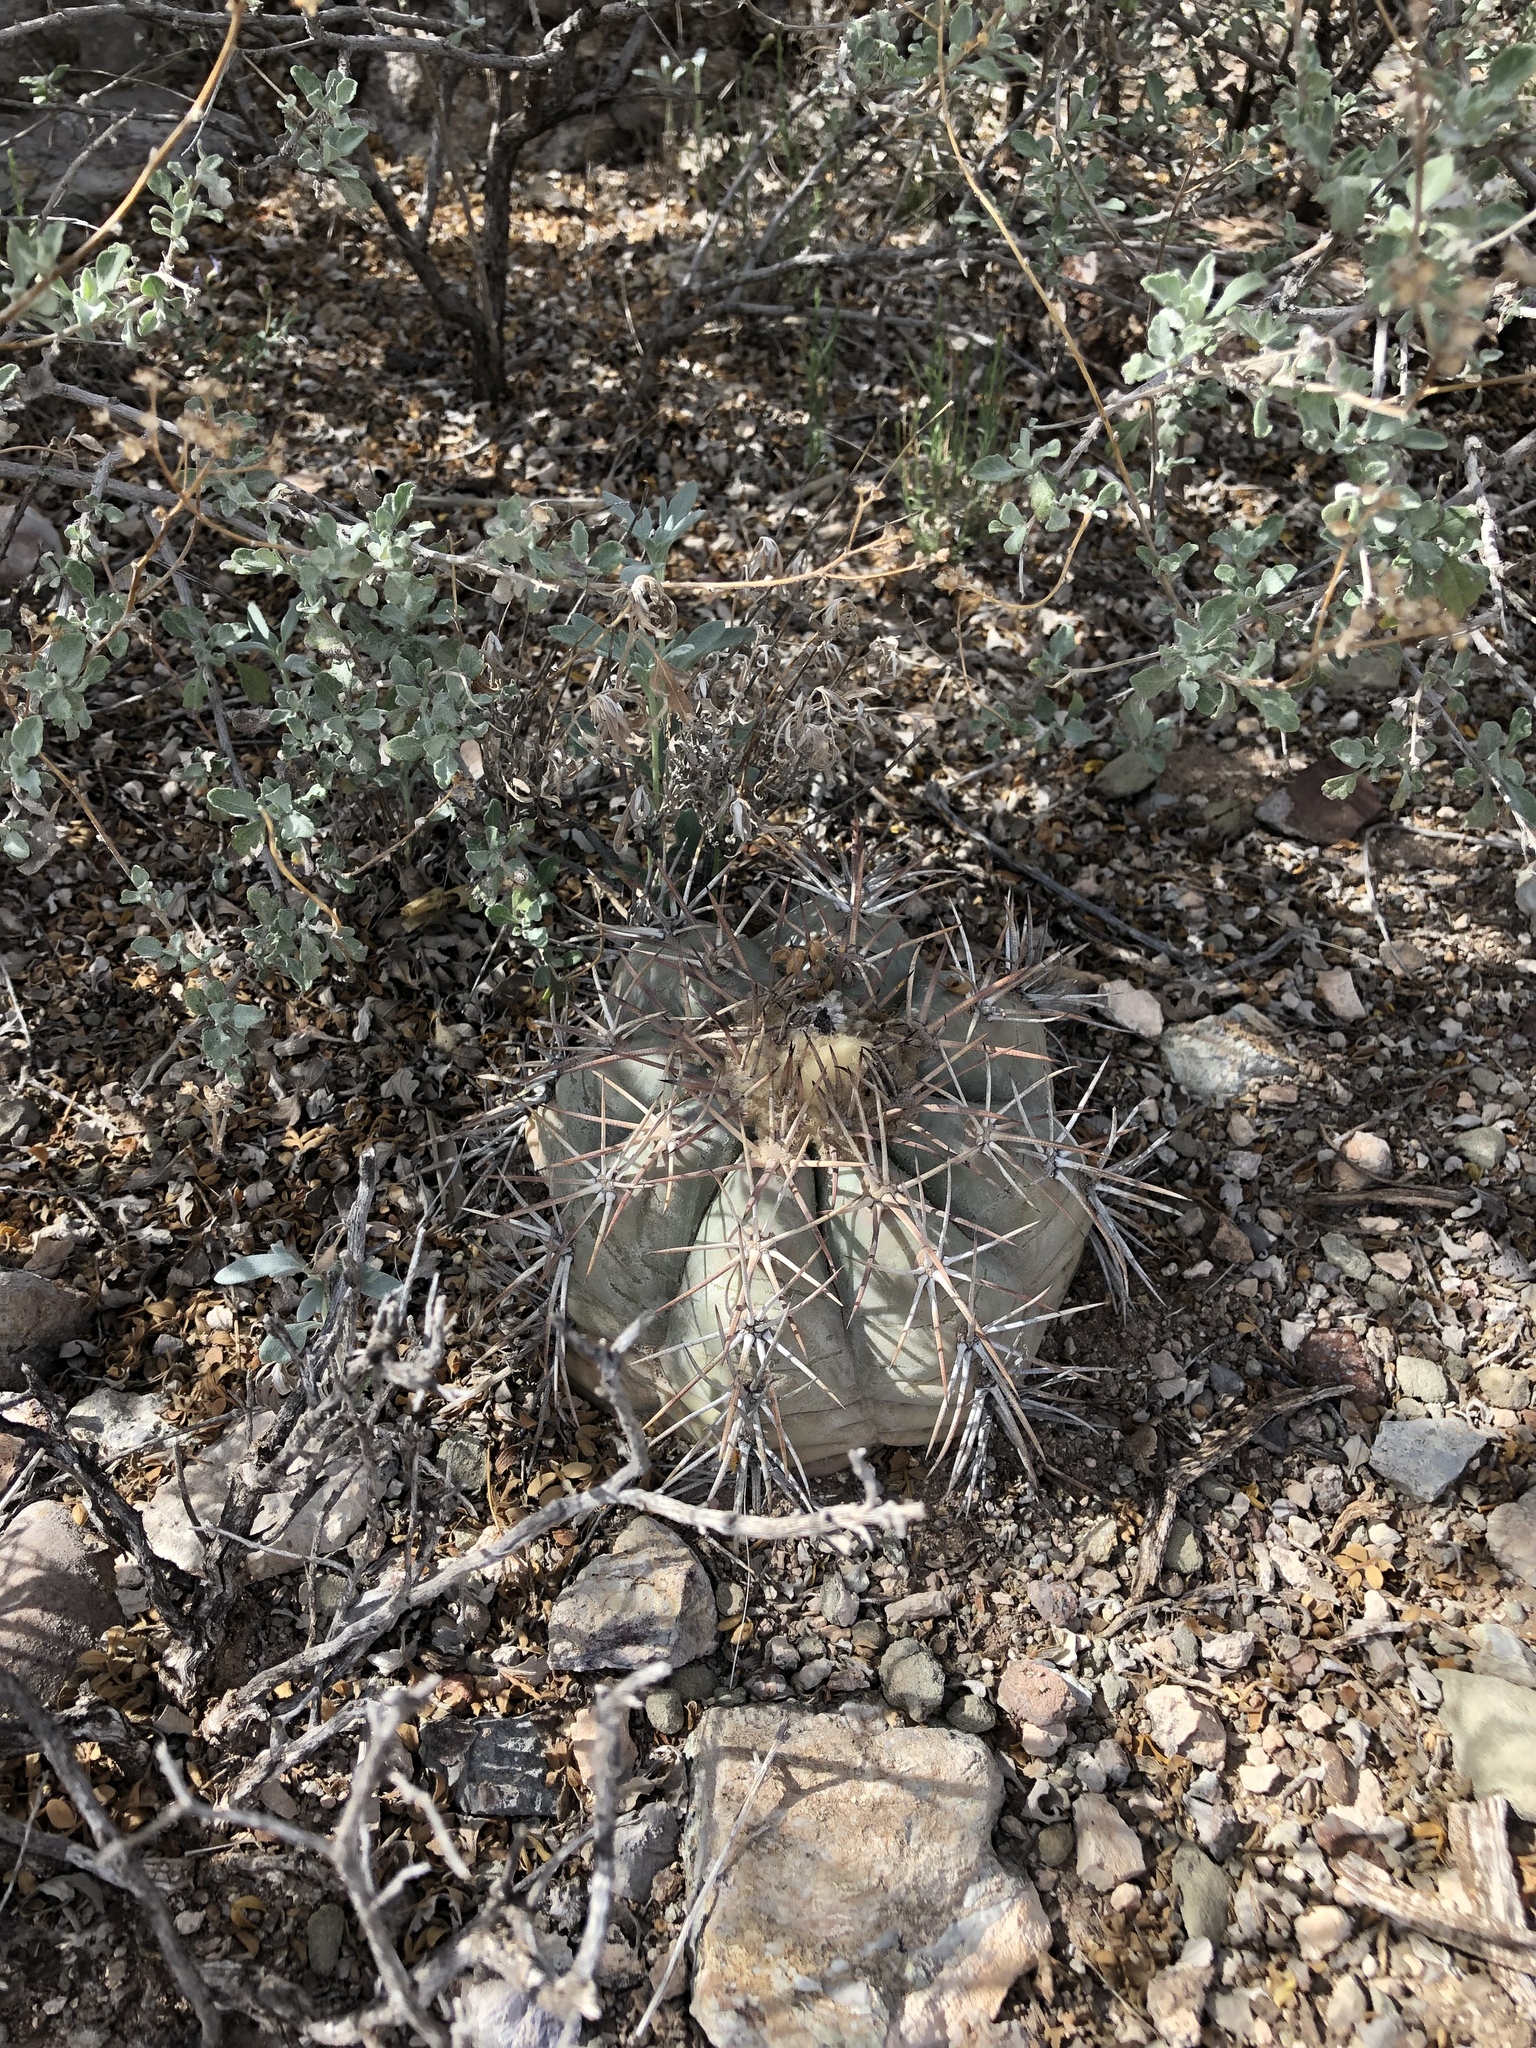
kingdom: Plantae
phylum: Tracheophyta
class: Magnoliopsida
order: Caryophyllales
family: Cactaceae
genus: Echinocactus
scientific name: Echinocactus horizonthalonius
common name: Devilshead
